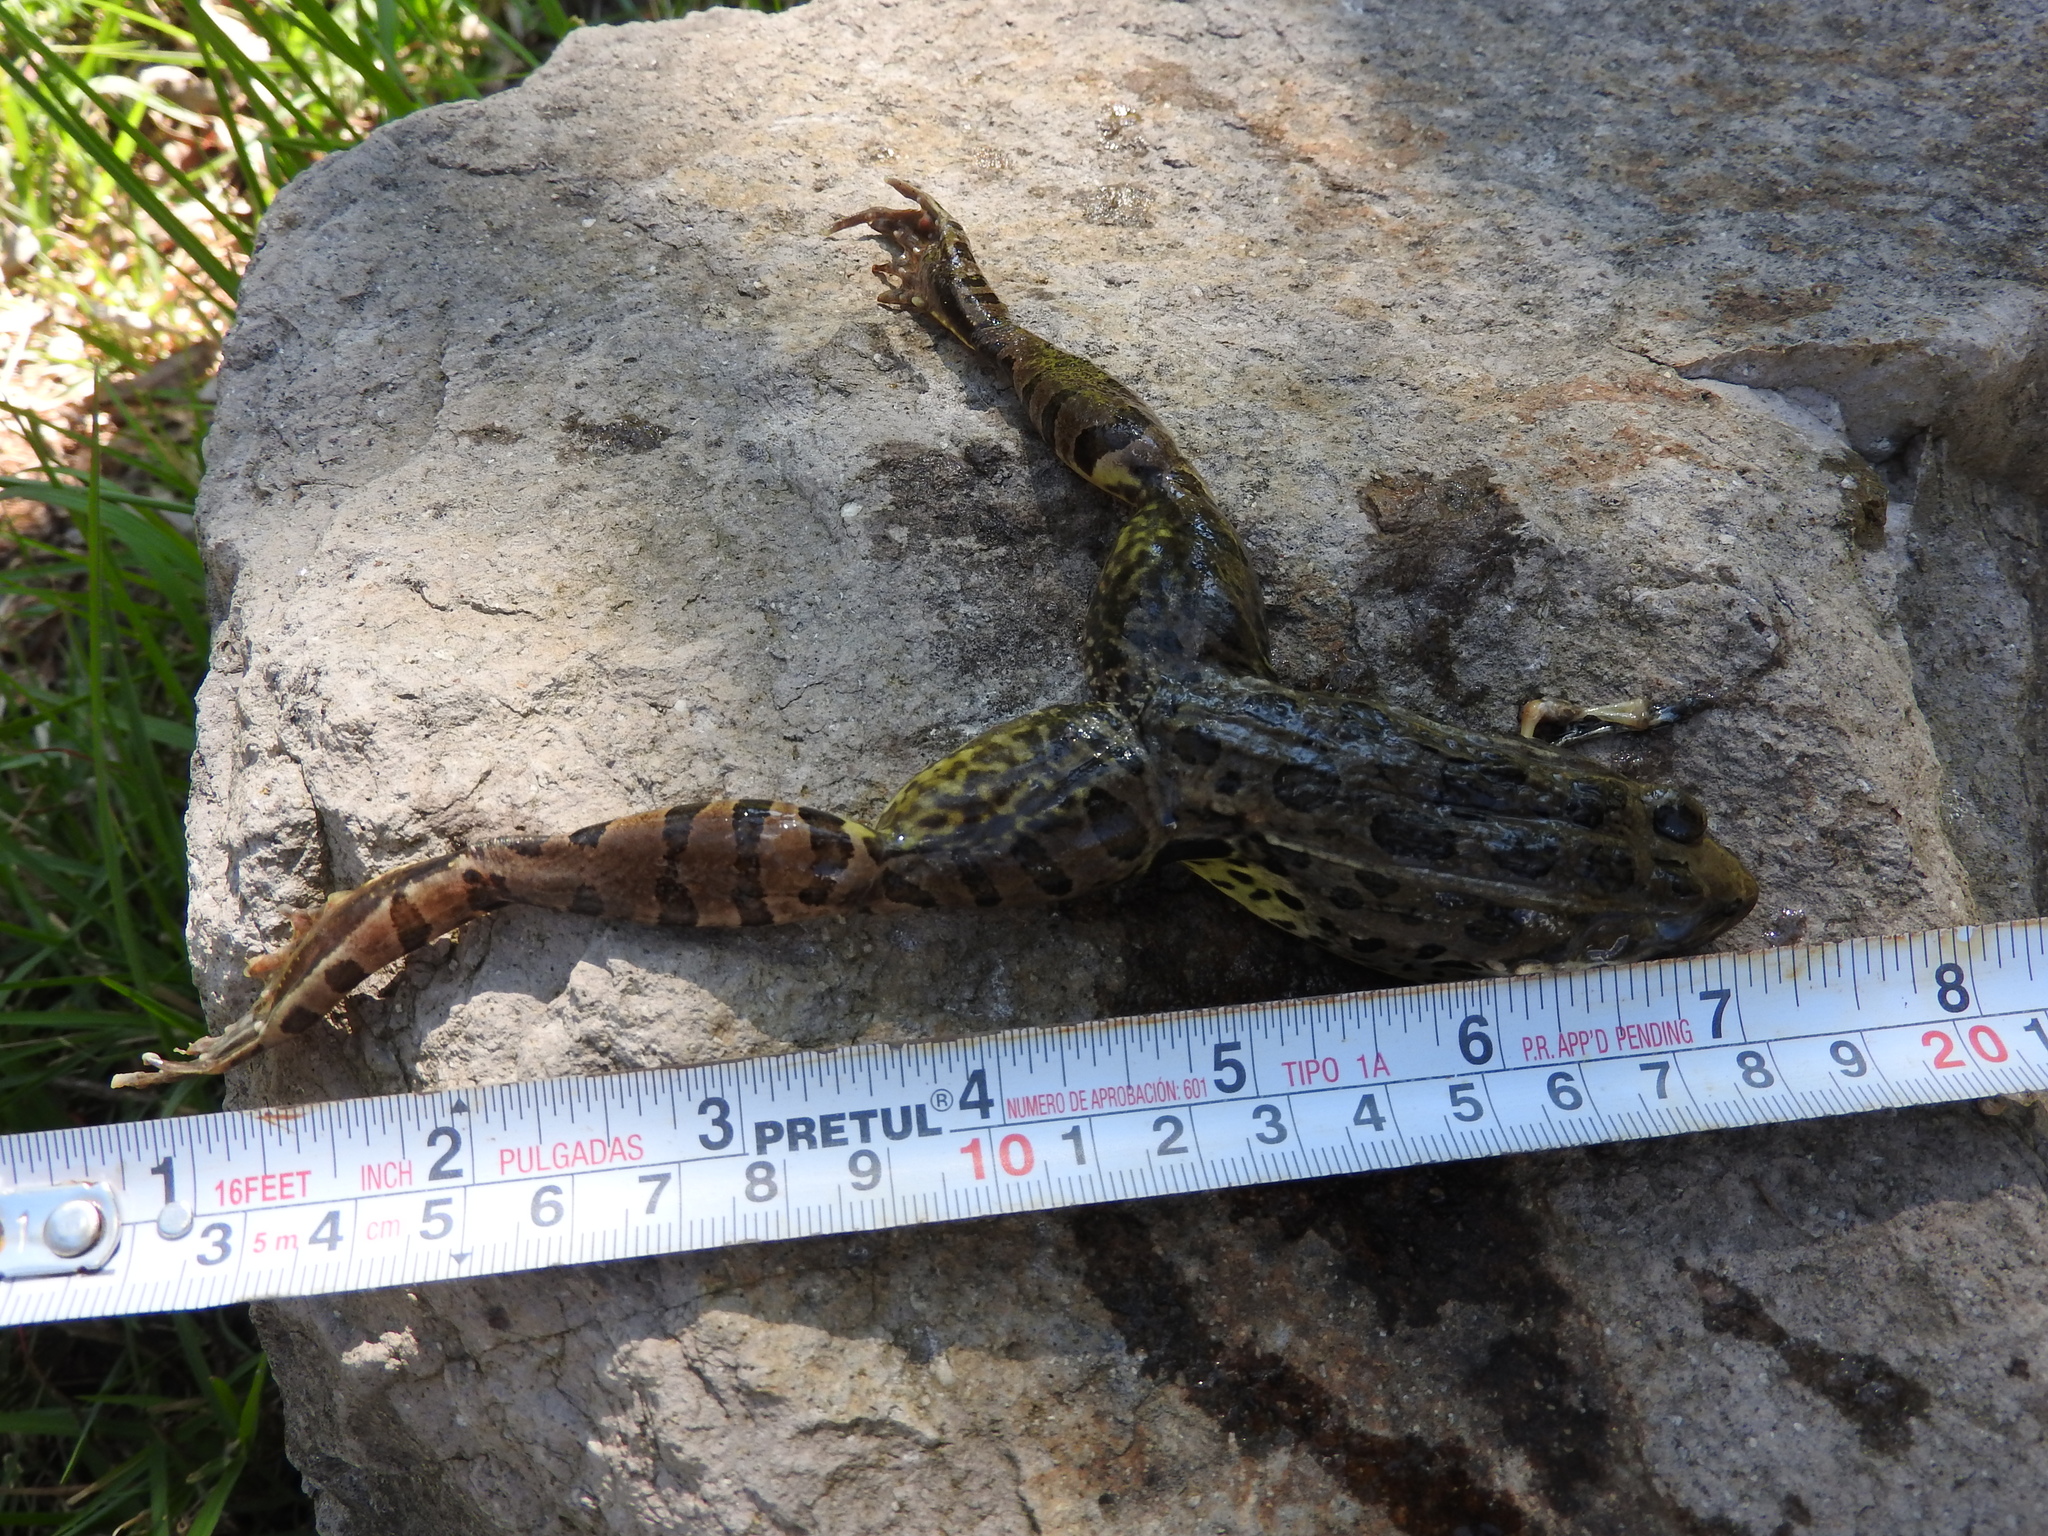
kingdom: Animalia
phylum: Chordata
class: Amphibia
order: Anura
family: Ranidae
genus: Lithobates
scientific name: Lithobates neovolcanicus
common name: Transverse volcanic leopard frog
